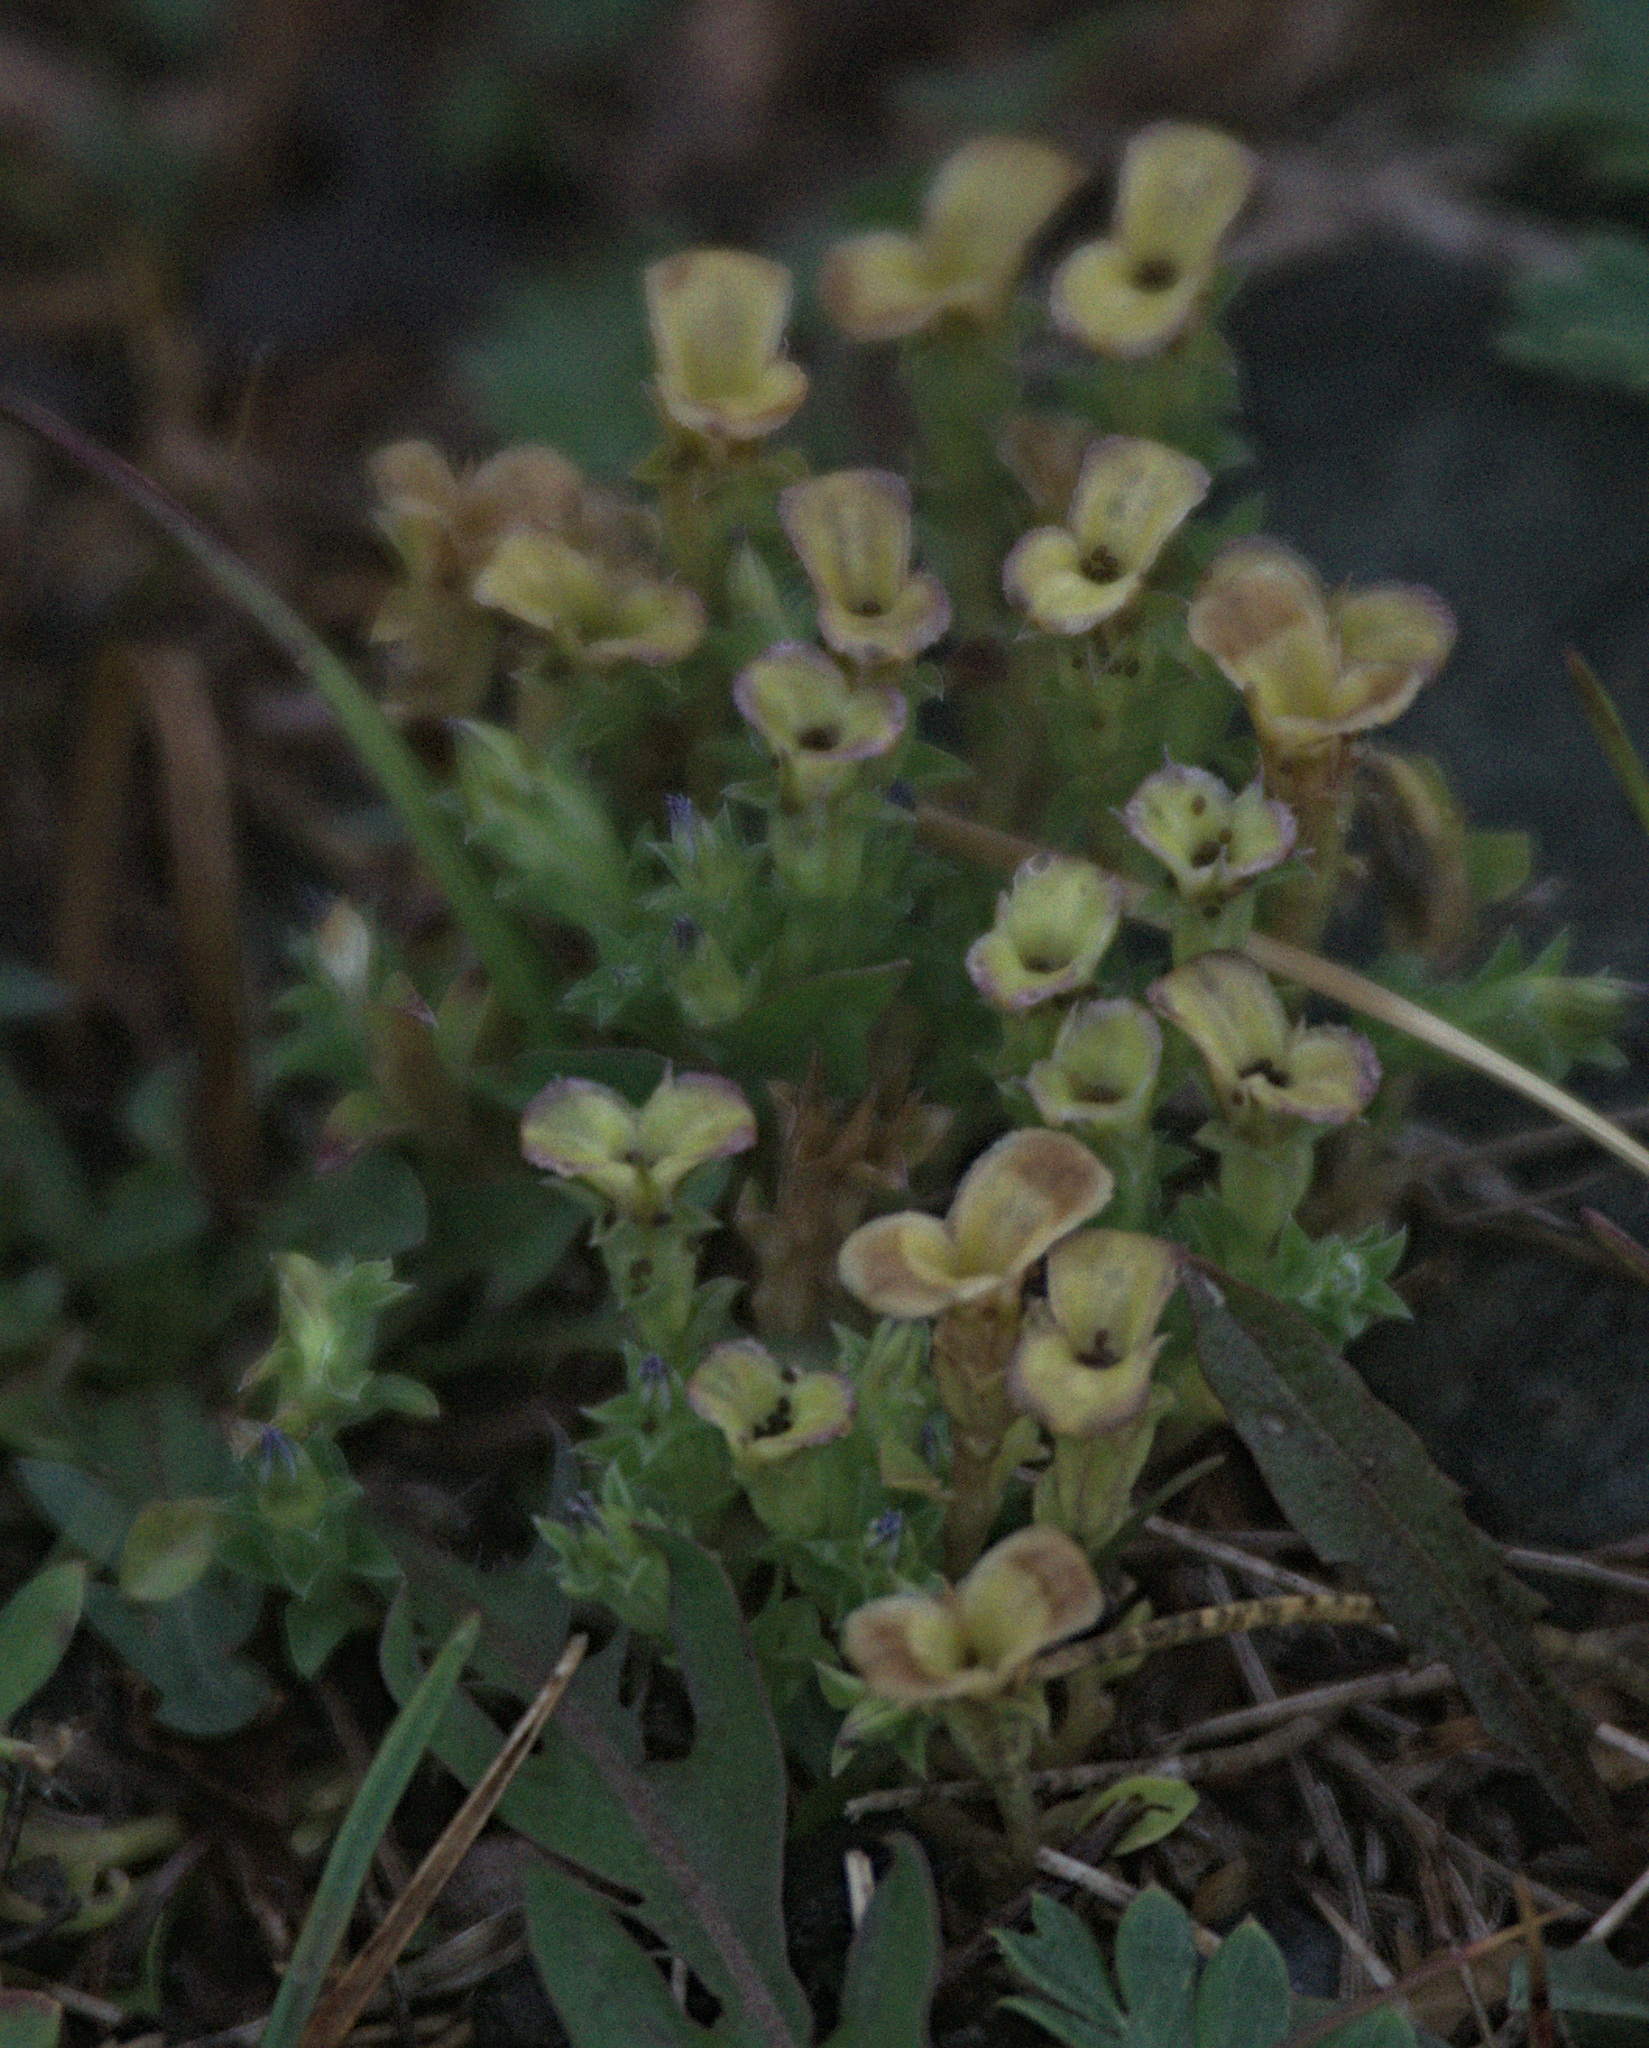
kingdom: Plantae
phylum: Tracheophyta
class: Magnoliopsida
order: Gentianales
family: Gentianaceae
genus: Gentiana
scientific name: Gentiana squarrosa
